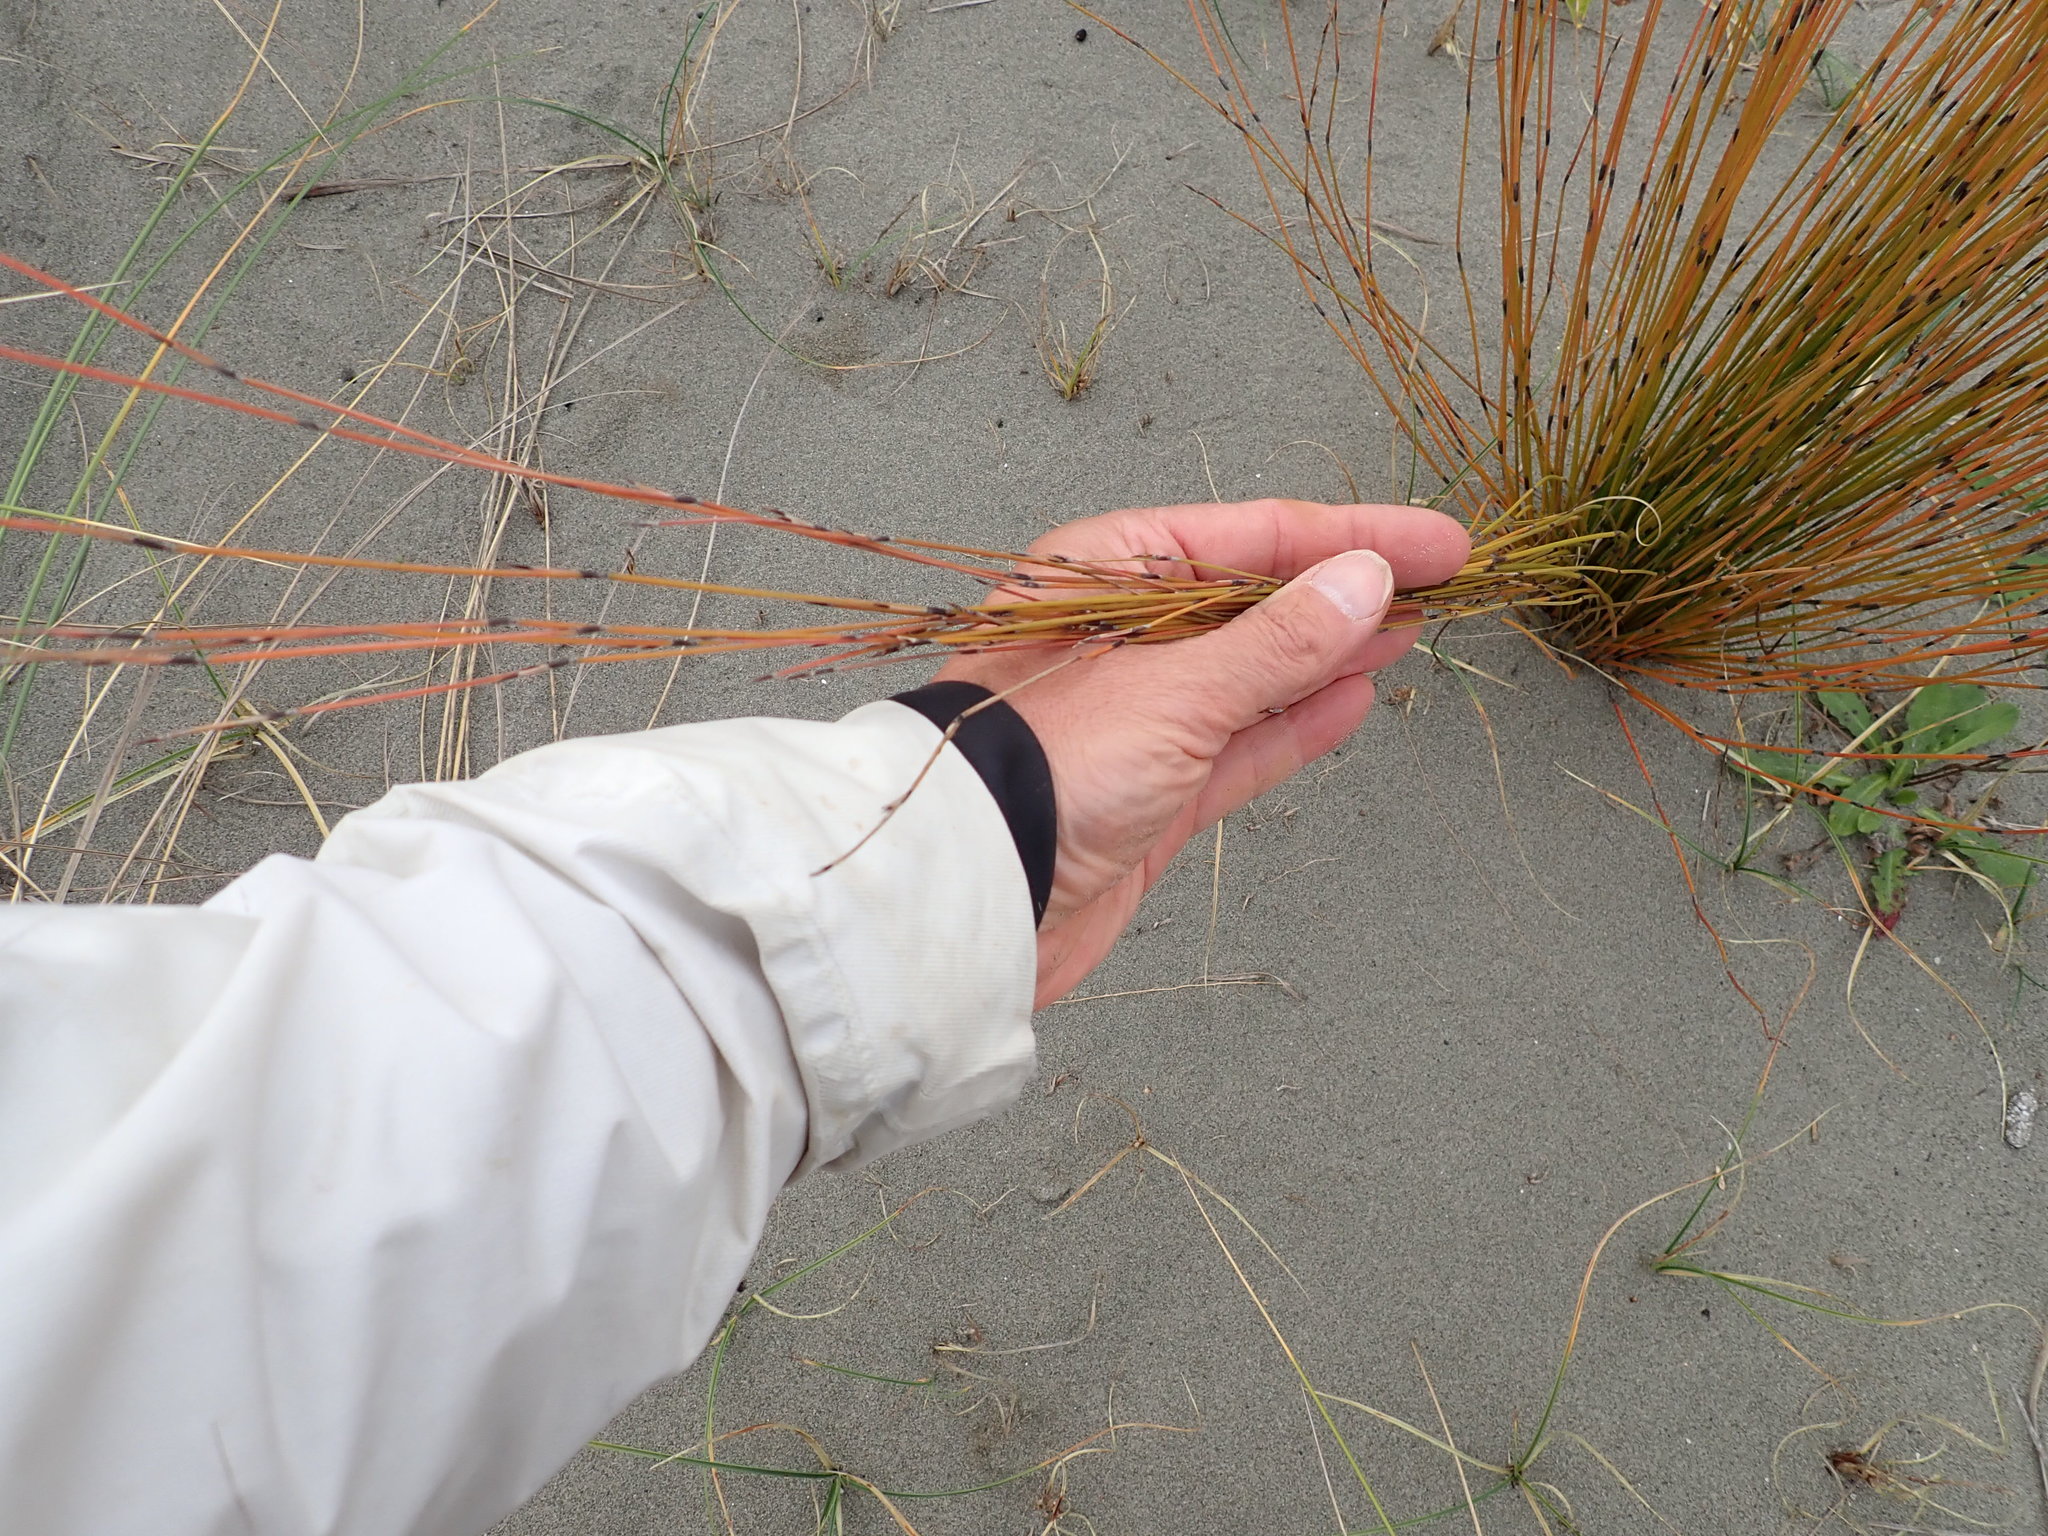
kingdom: Plantae
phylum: Tracheophyta
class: Liliopsida
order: Poales
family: Restionaceae
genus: Apodasmia
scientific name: Apodasmia similis
